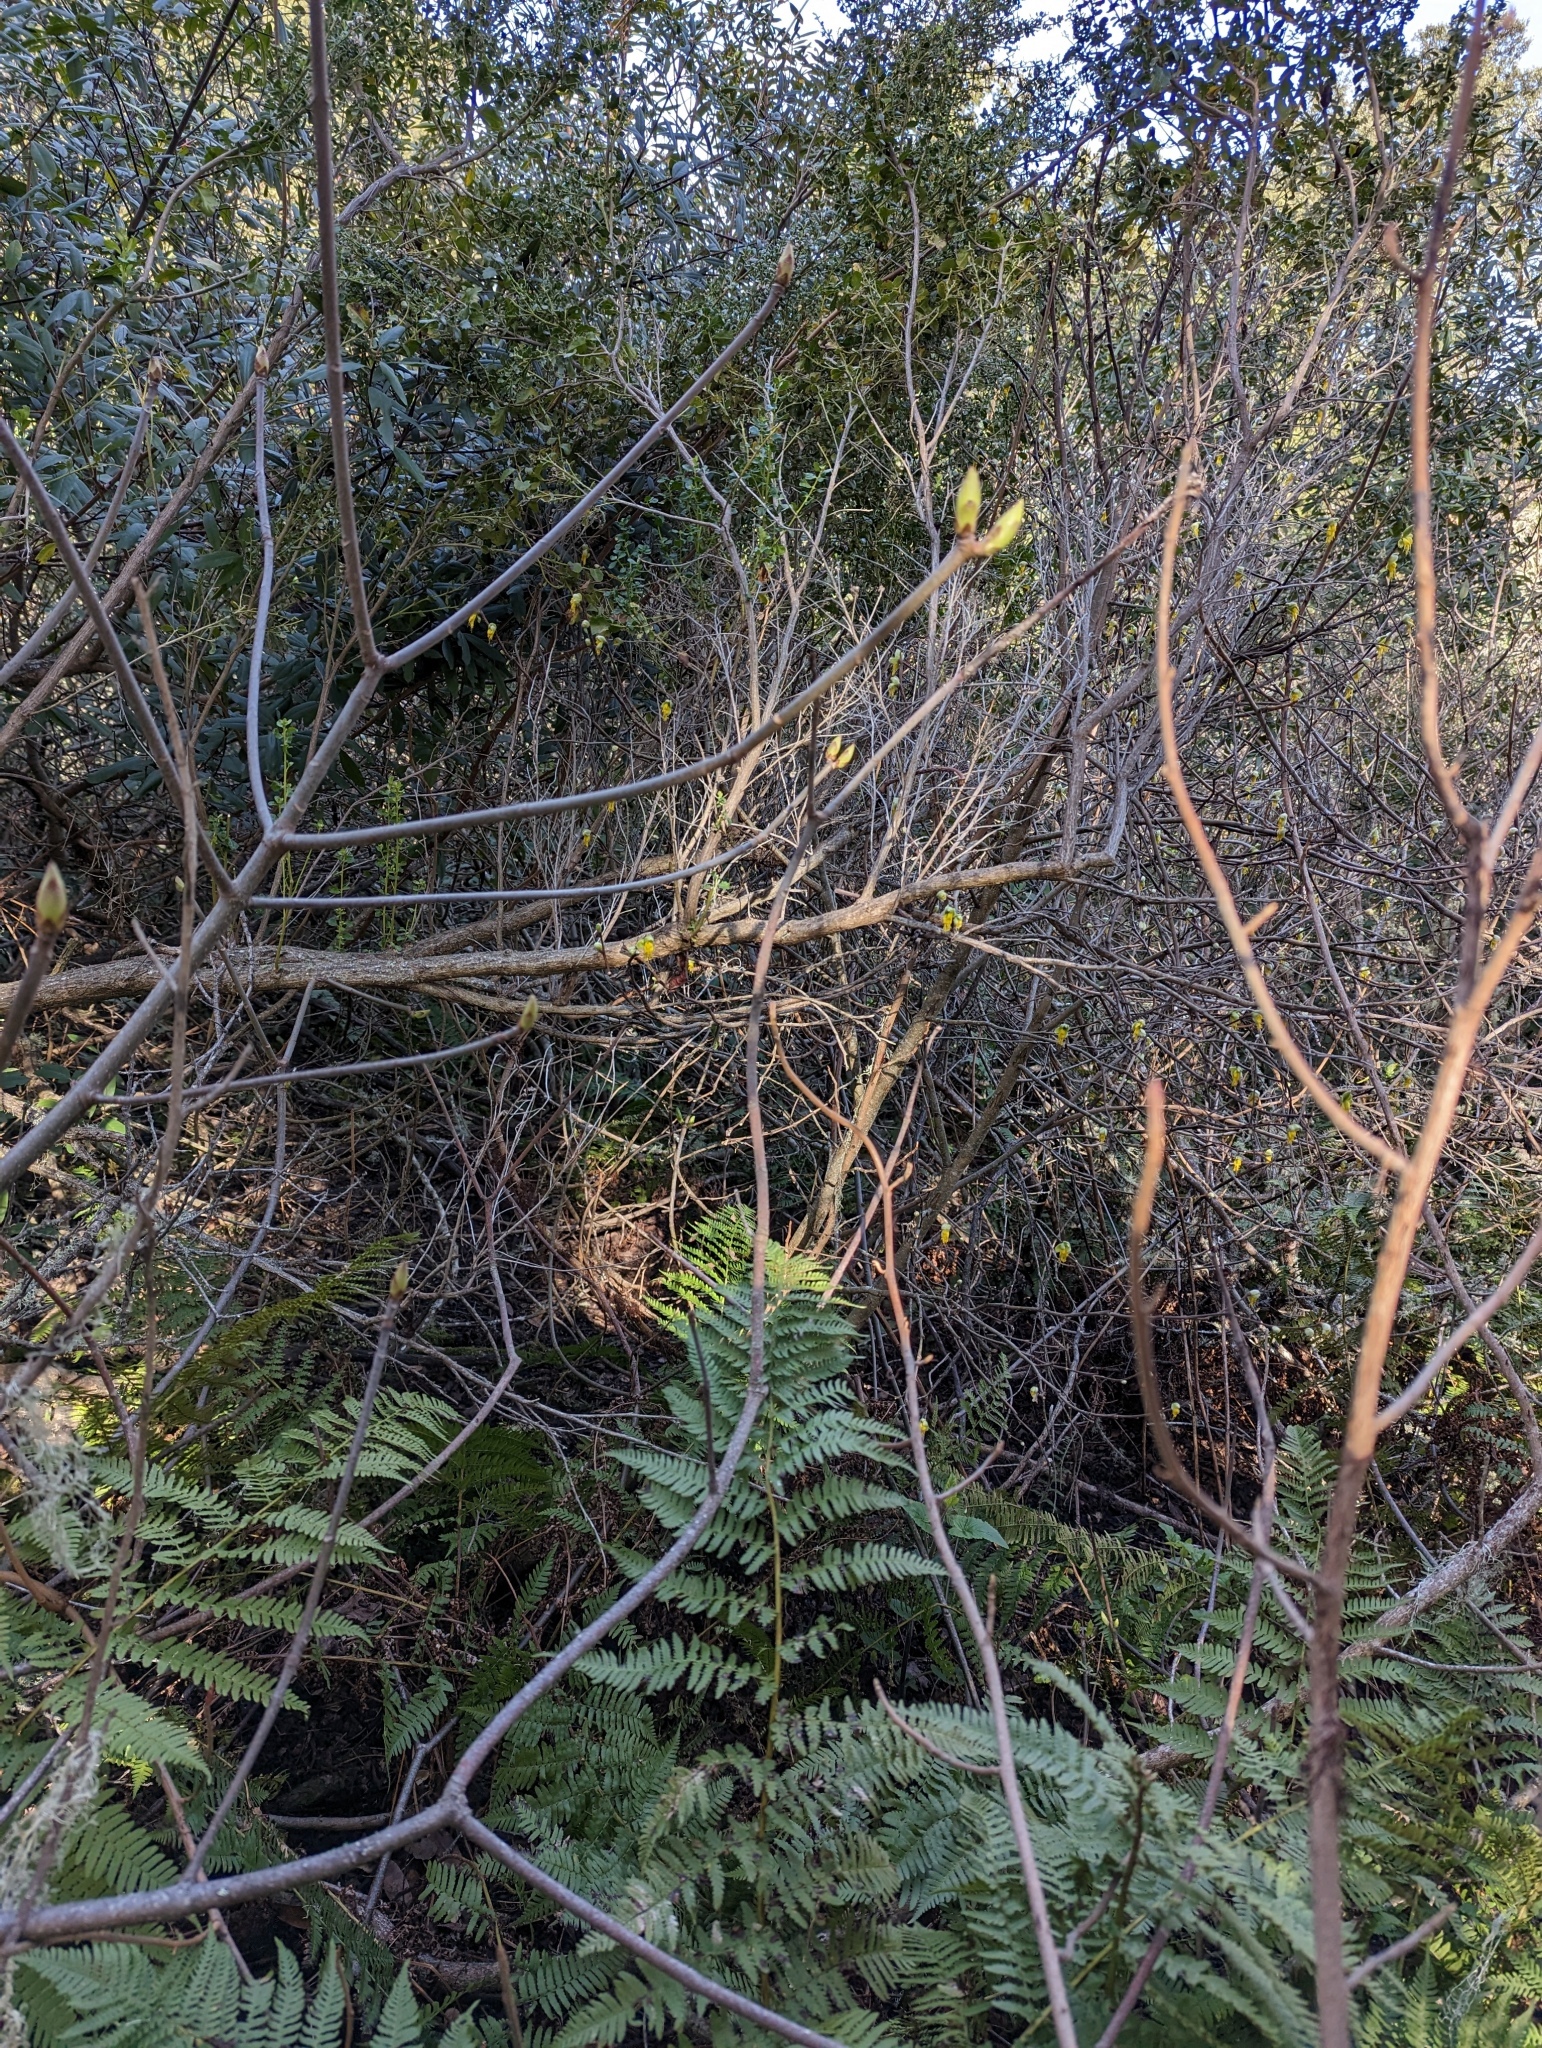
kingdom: Plantae
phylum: Tracheophyta
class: Magnoliopsida
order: Malvales
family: Thymelaeaceae
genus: Dirca
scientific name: Dirca occidentalis
